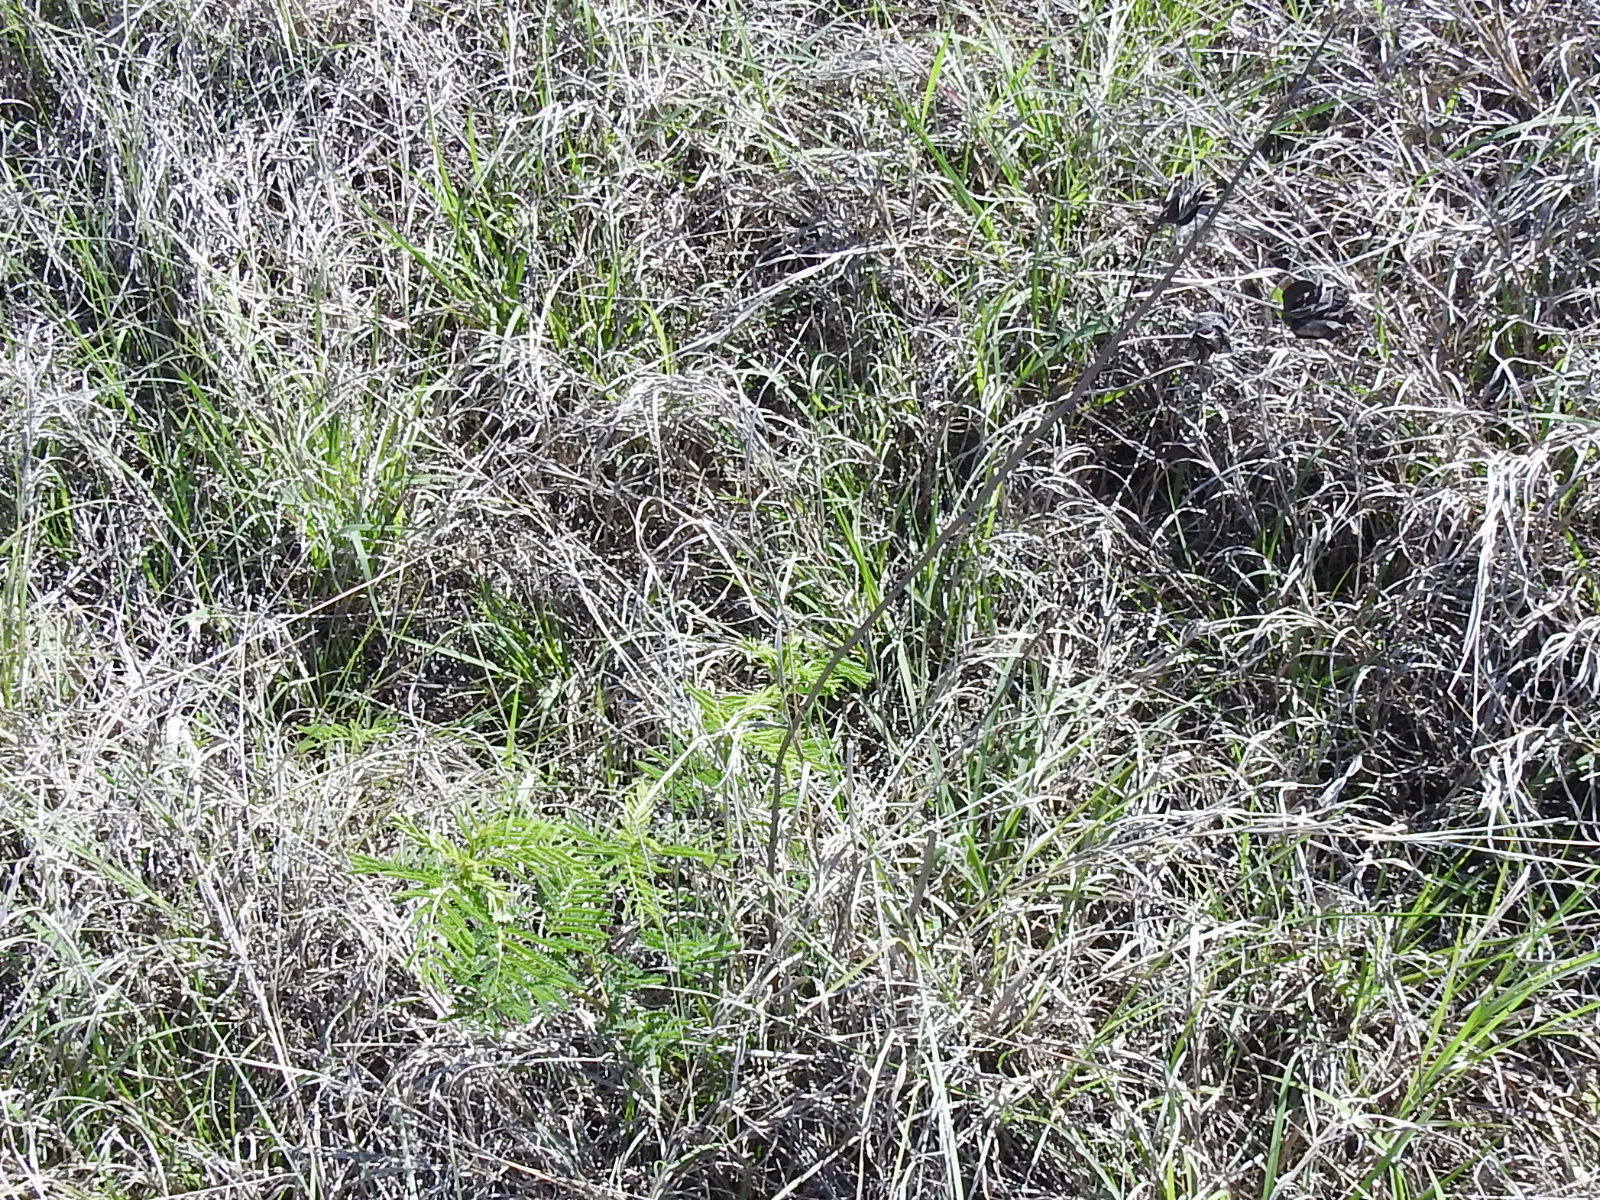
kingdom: Plantae
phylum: Tracheophyta
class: Magnoliopsida
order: Fabales
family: Fabaceae
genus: Desmanthus
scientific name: Desmanthus illinoensis
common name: Illinois bundle-flower
